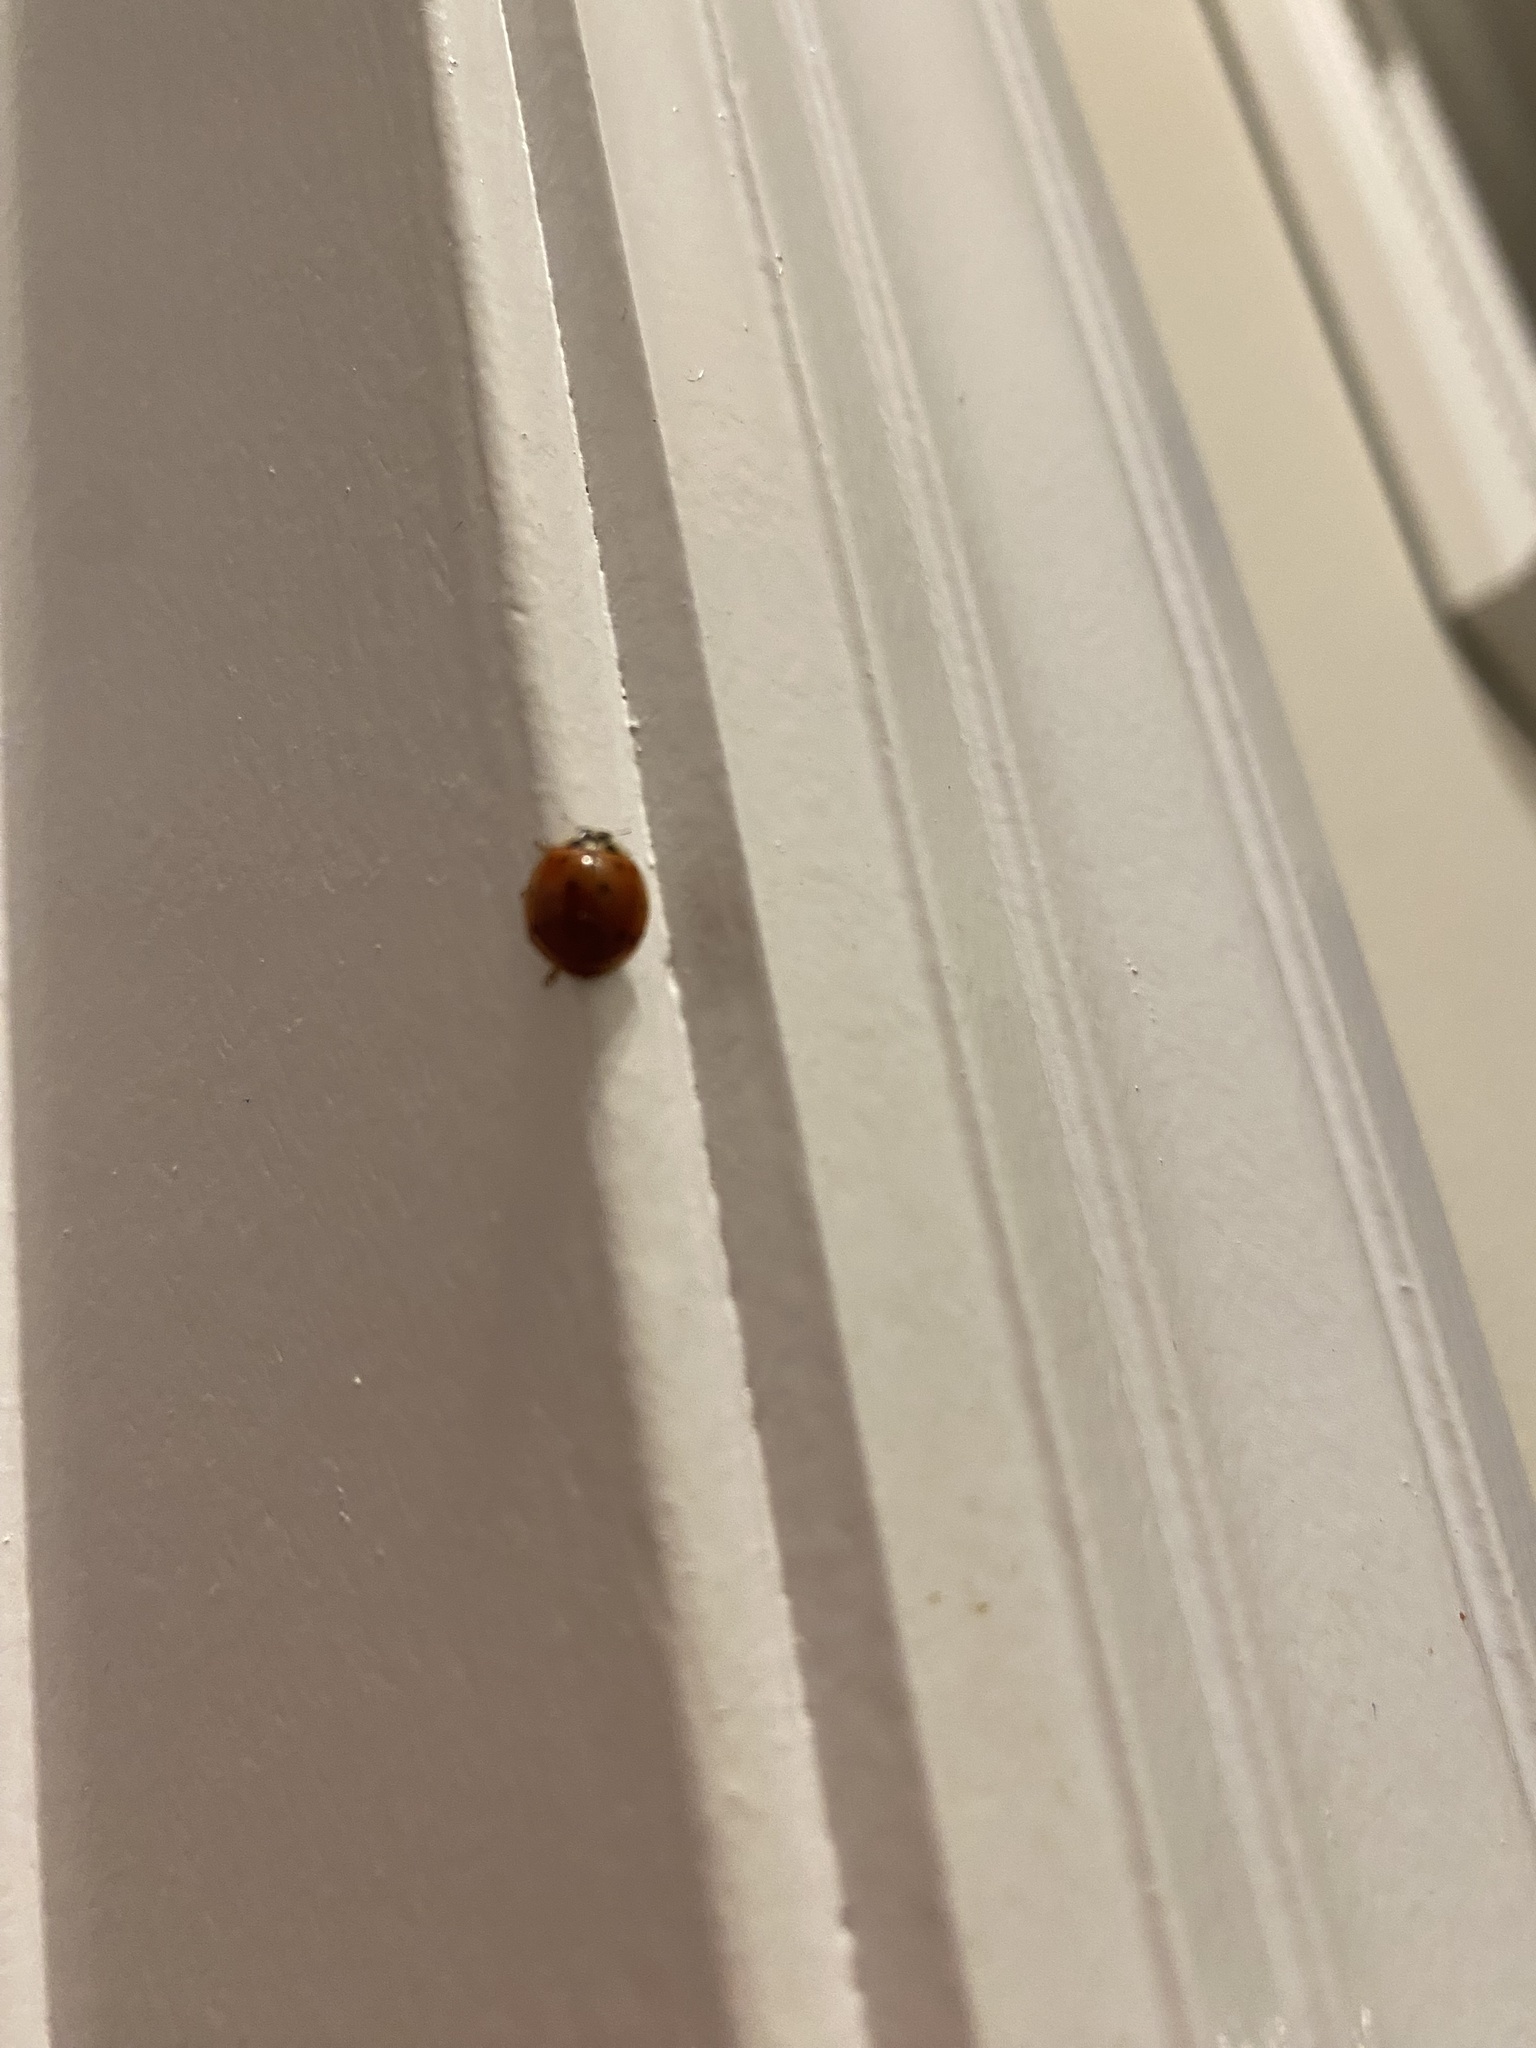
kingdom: Animalia
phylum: Arthropoda
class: Insecta
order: Coleoptera
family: Coccinellidae
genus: Harmonia
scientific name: Harmonia axyridis
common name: Harlequin ladybird
